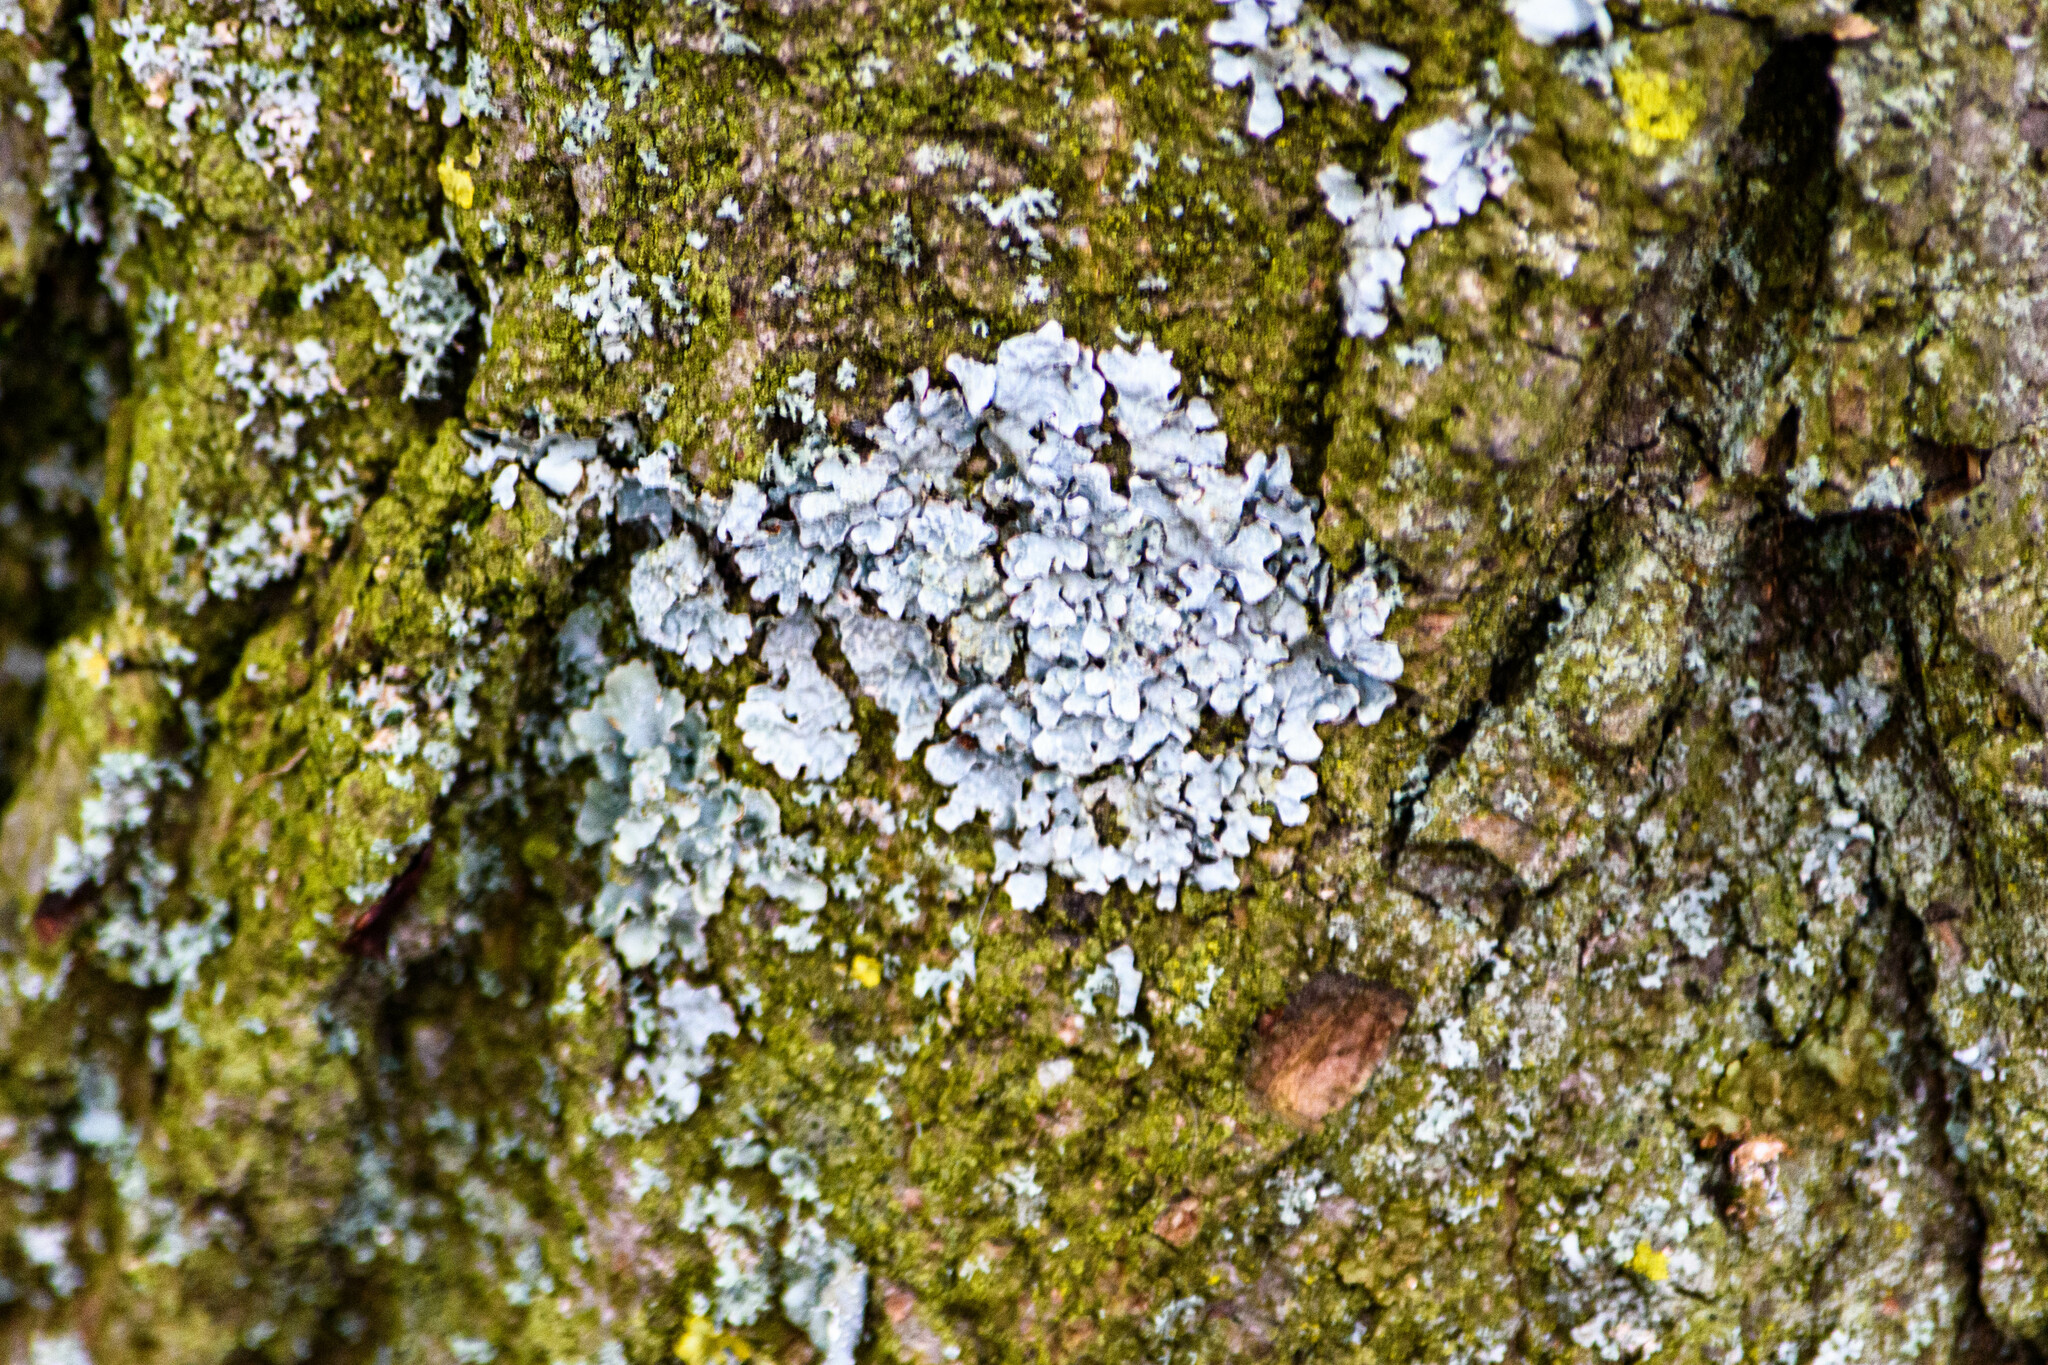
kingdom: Fungi
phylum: Ascomycota
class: Lecanoromycetes
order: Lecanorales
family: Parmeliaceae
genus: Parmelia
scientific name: Parmelia sulcata
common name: Netted shield lichen
